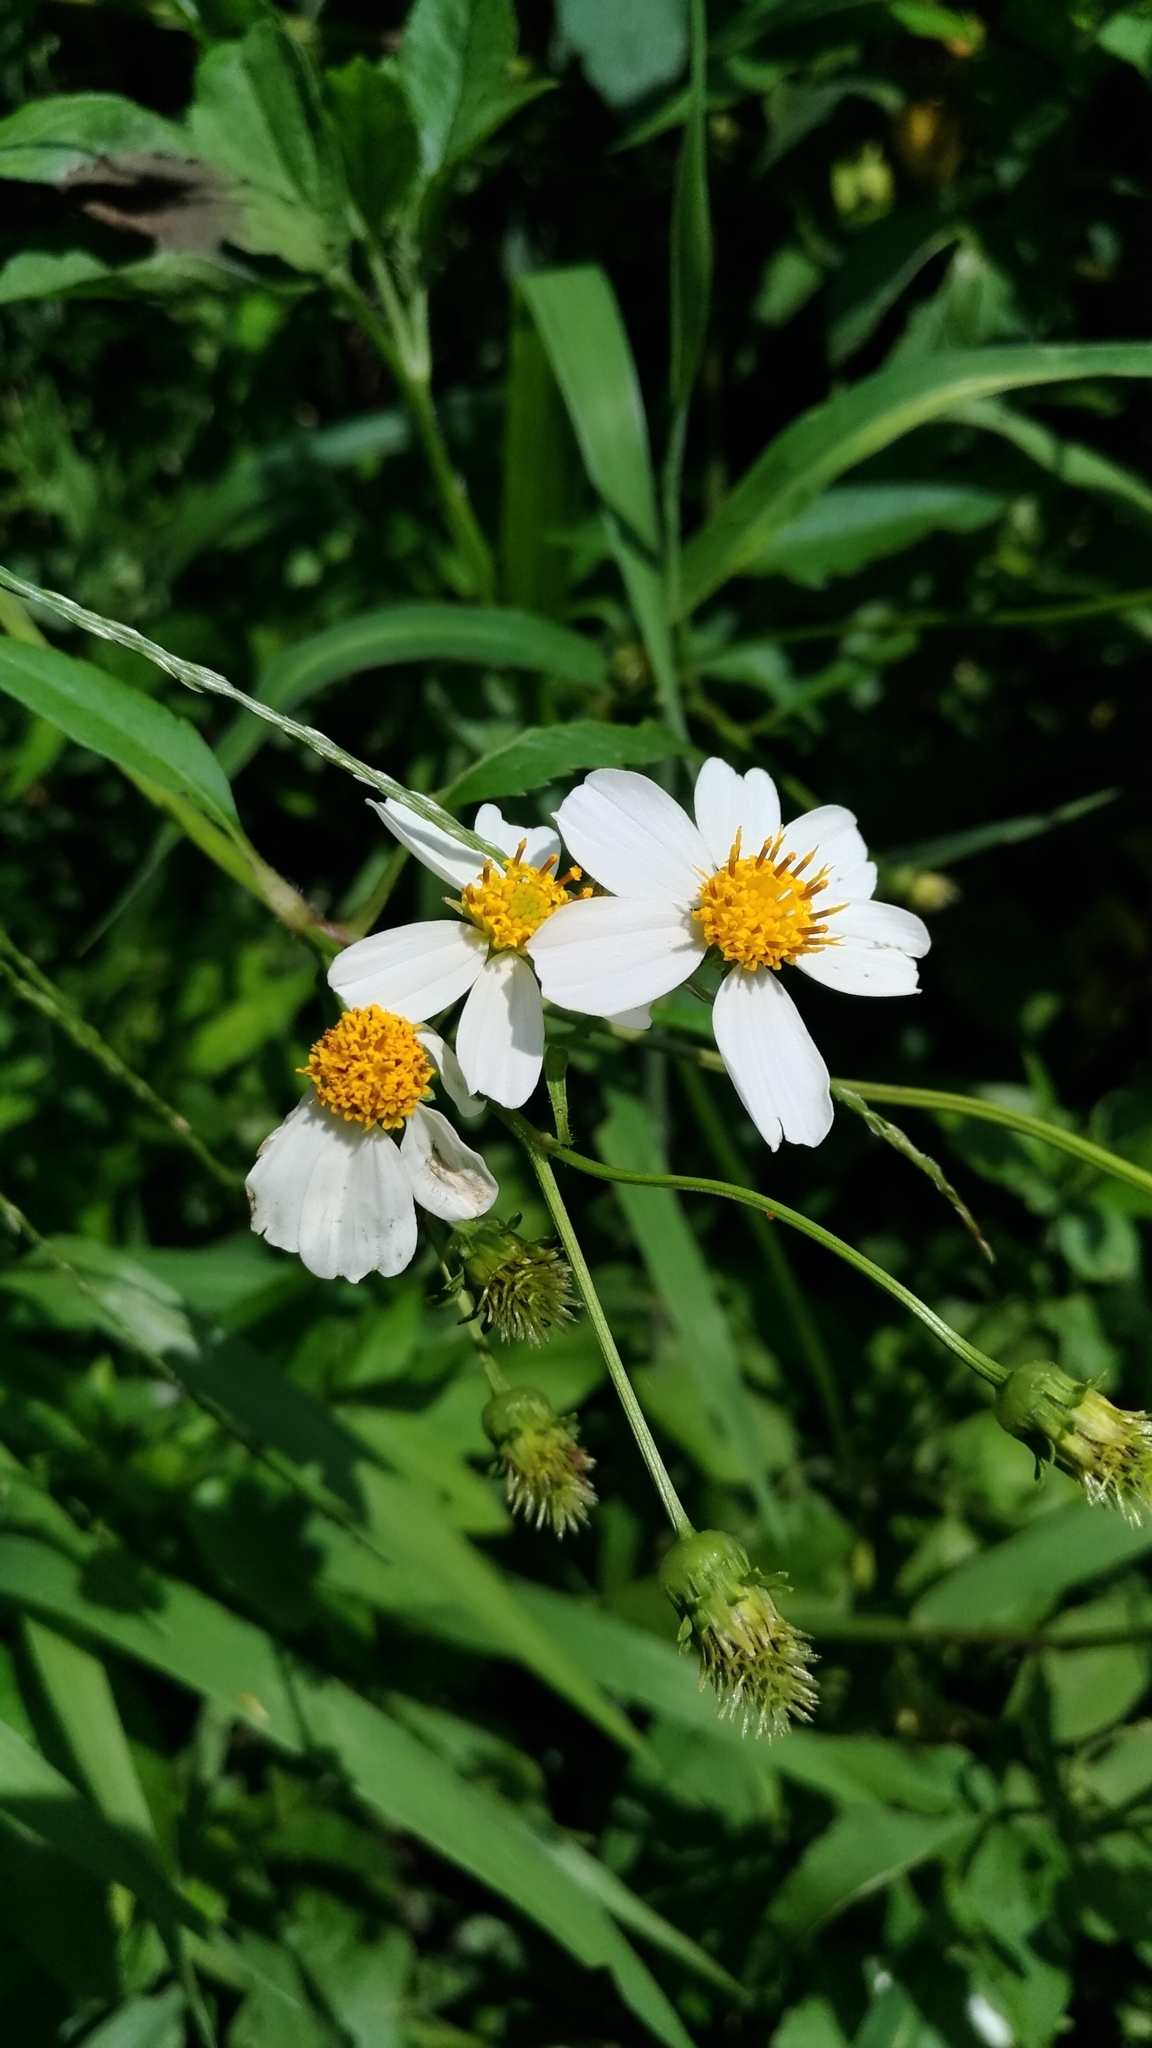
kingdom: Plantae
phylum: Tracheophyta
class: Magnoliopsida
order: Asterales
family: Asteraceae
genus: Bidens
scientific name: Bidens alba
